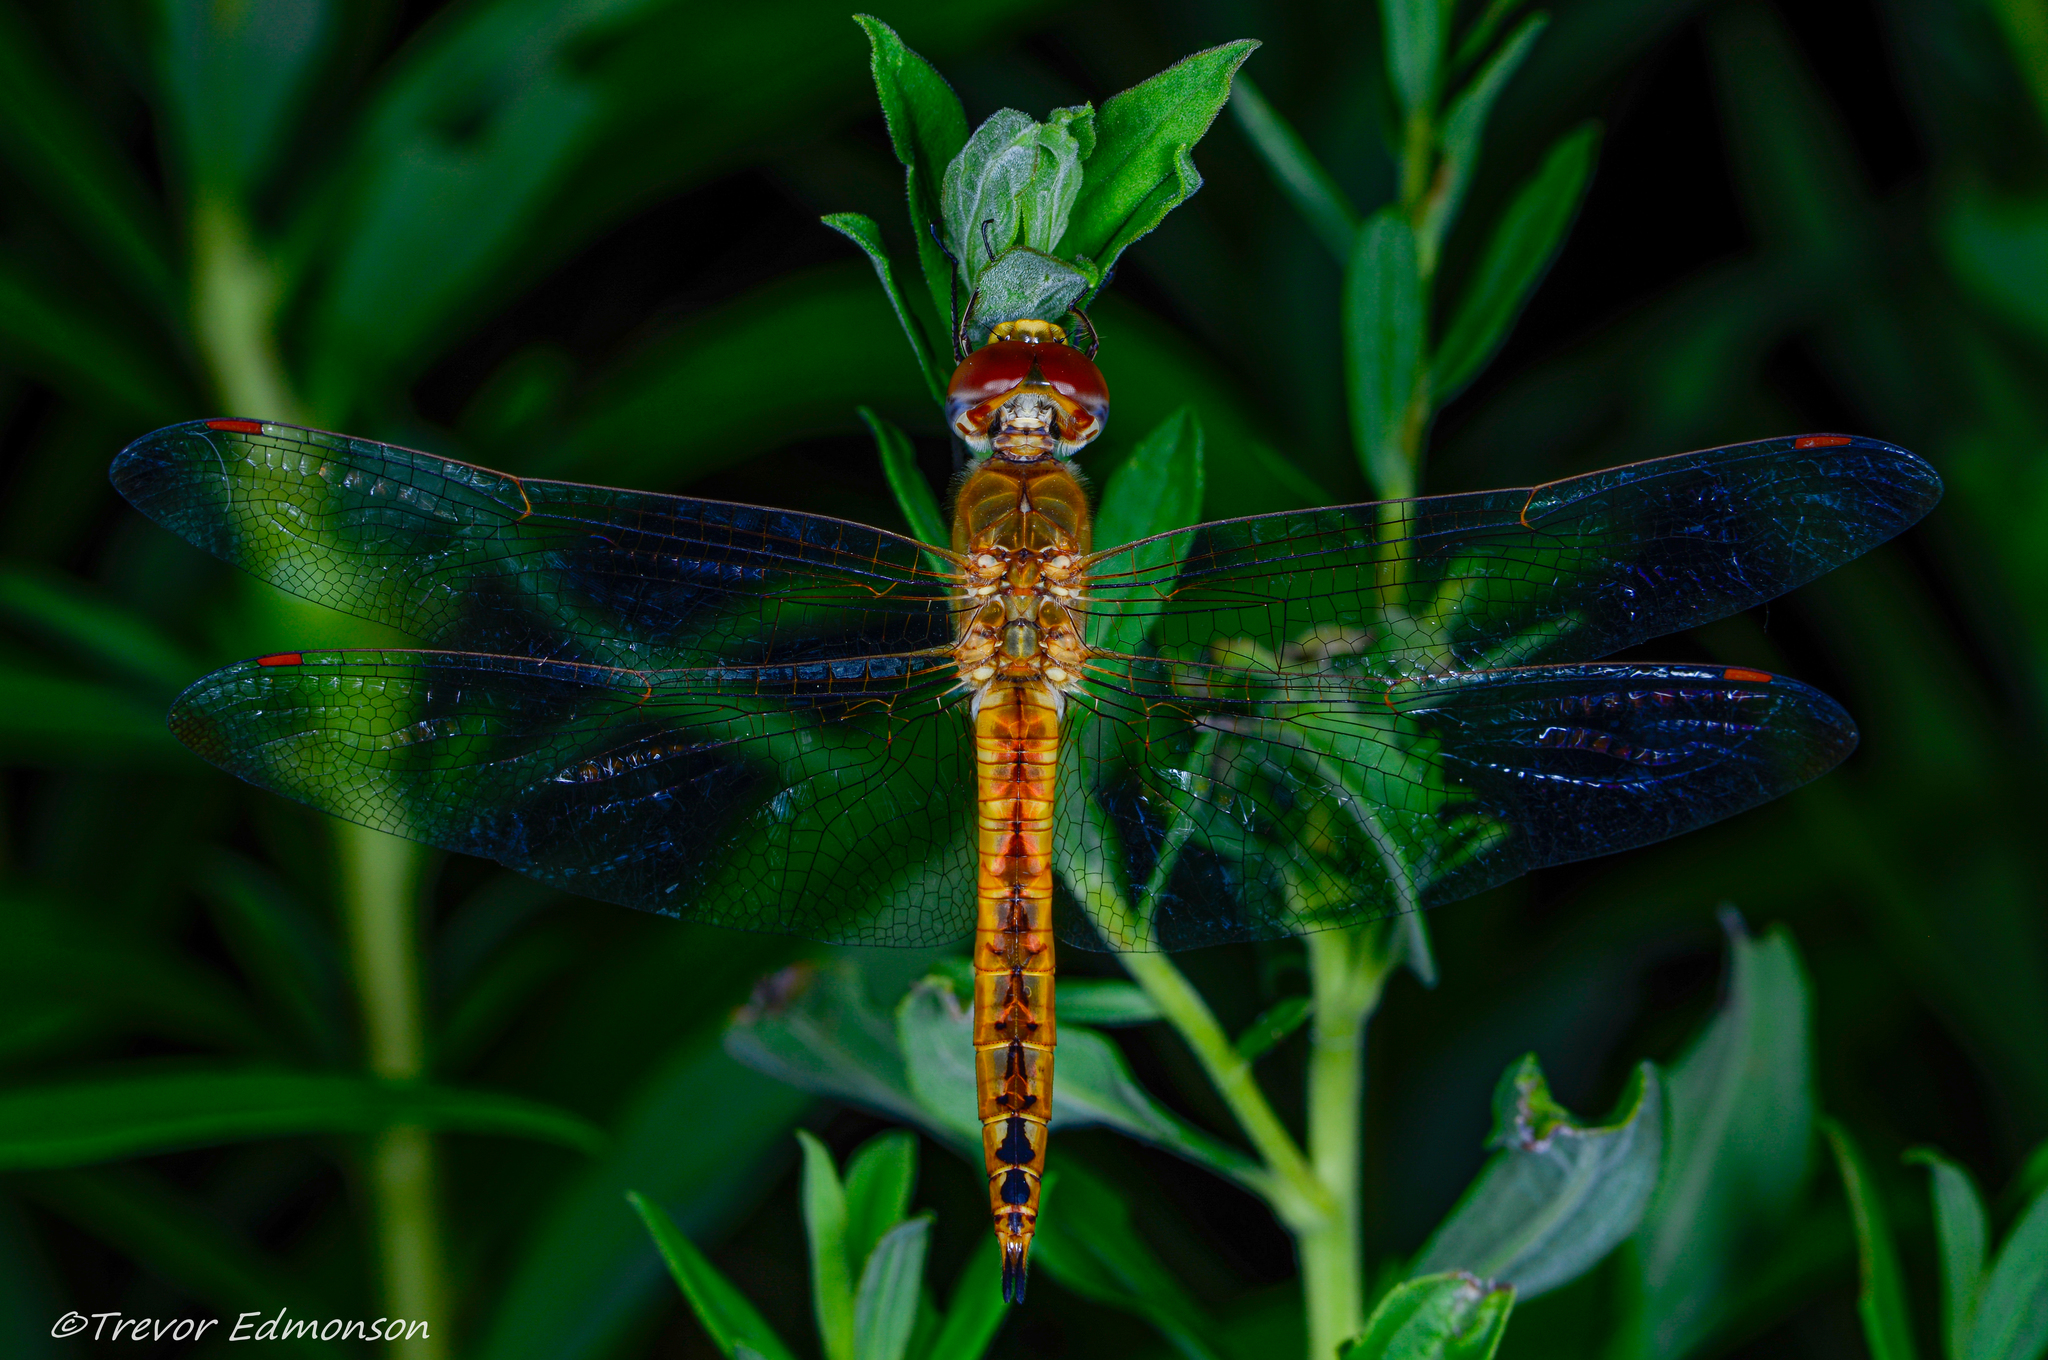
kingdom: Animalia
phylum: Arthropoda
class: Insecta
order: Odonata
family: Libellulidae
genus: Pantala
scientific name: Pantala flavescens
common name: Wandering glider
